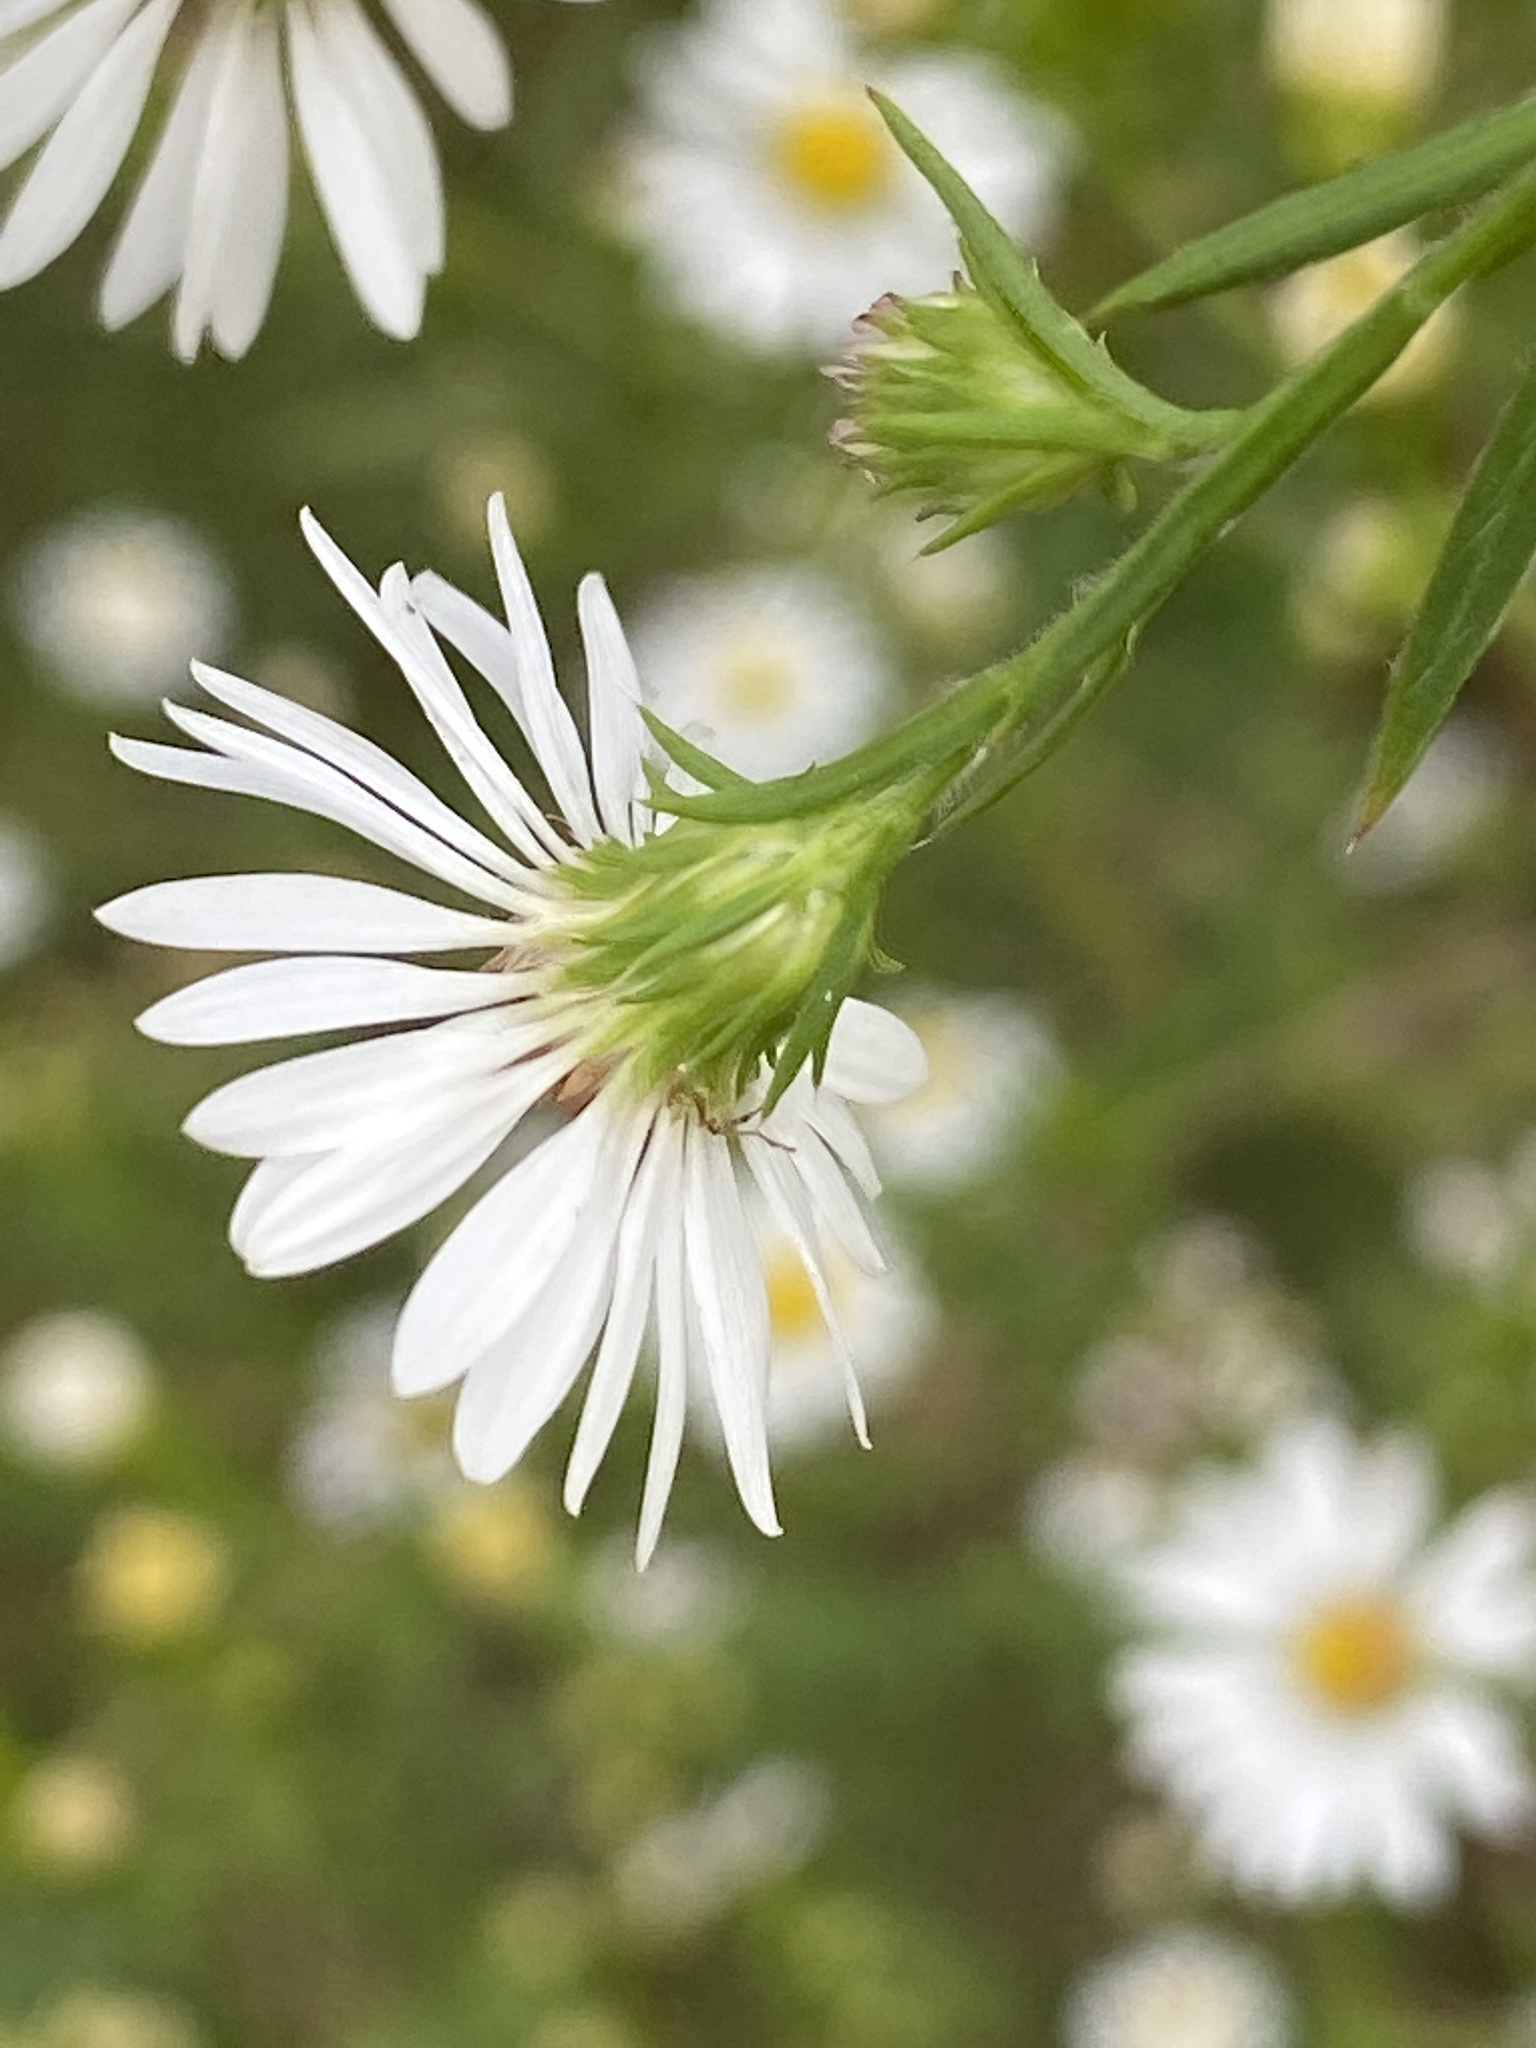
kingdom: Plantae
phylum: Tracheophyta
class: Magnoliopsida
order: Asterales
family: Asteraceae
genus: Symphyotrichum
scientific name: Symphyotrichum pilosum
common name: Awl aster
